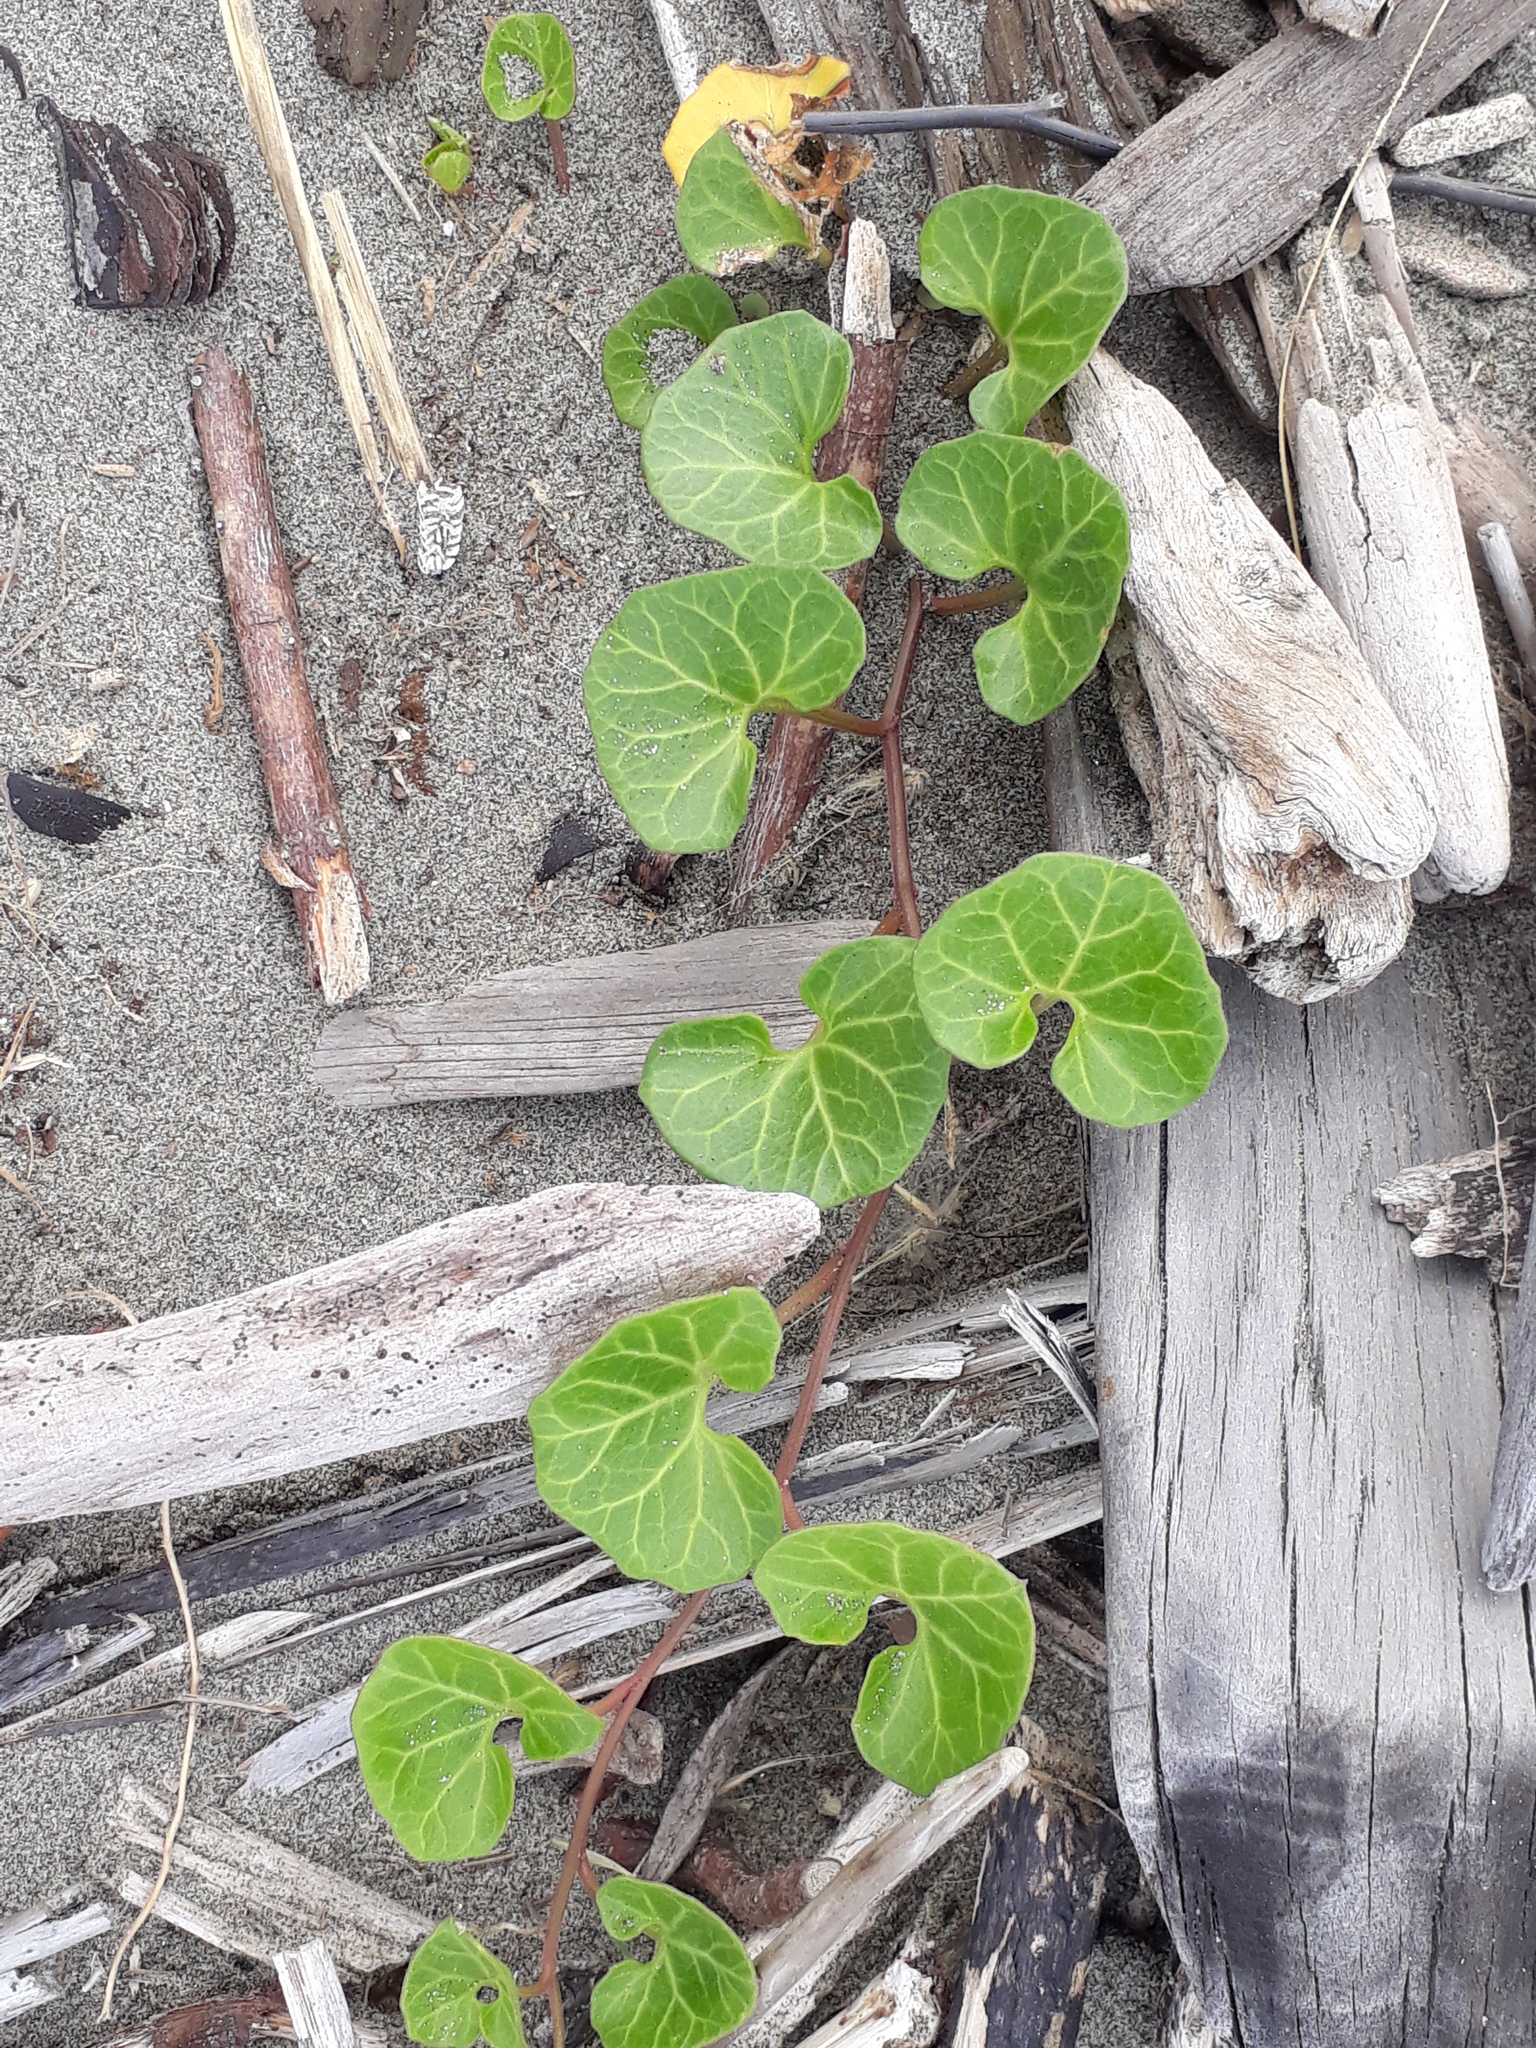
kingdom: Plantae
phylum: Tracheophyta
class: Magnoliopsida
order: Solanales
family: Convolvulaceae
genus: Calystegia
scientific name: Calystegia soldanella
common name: Sea bindweed
